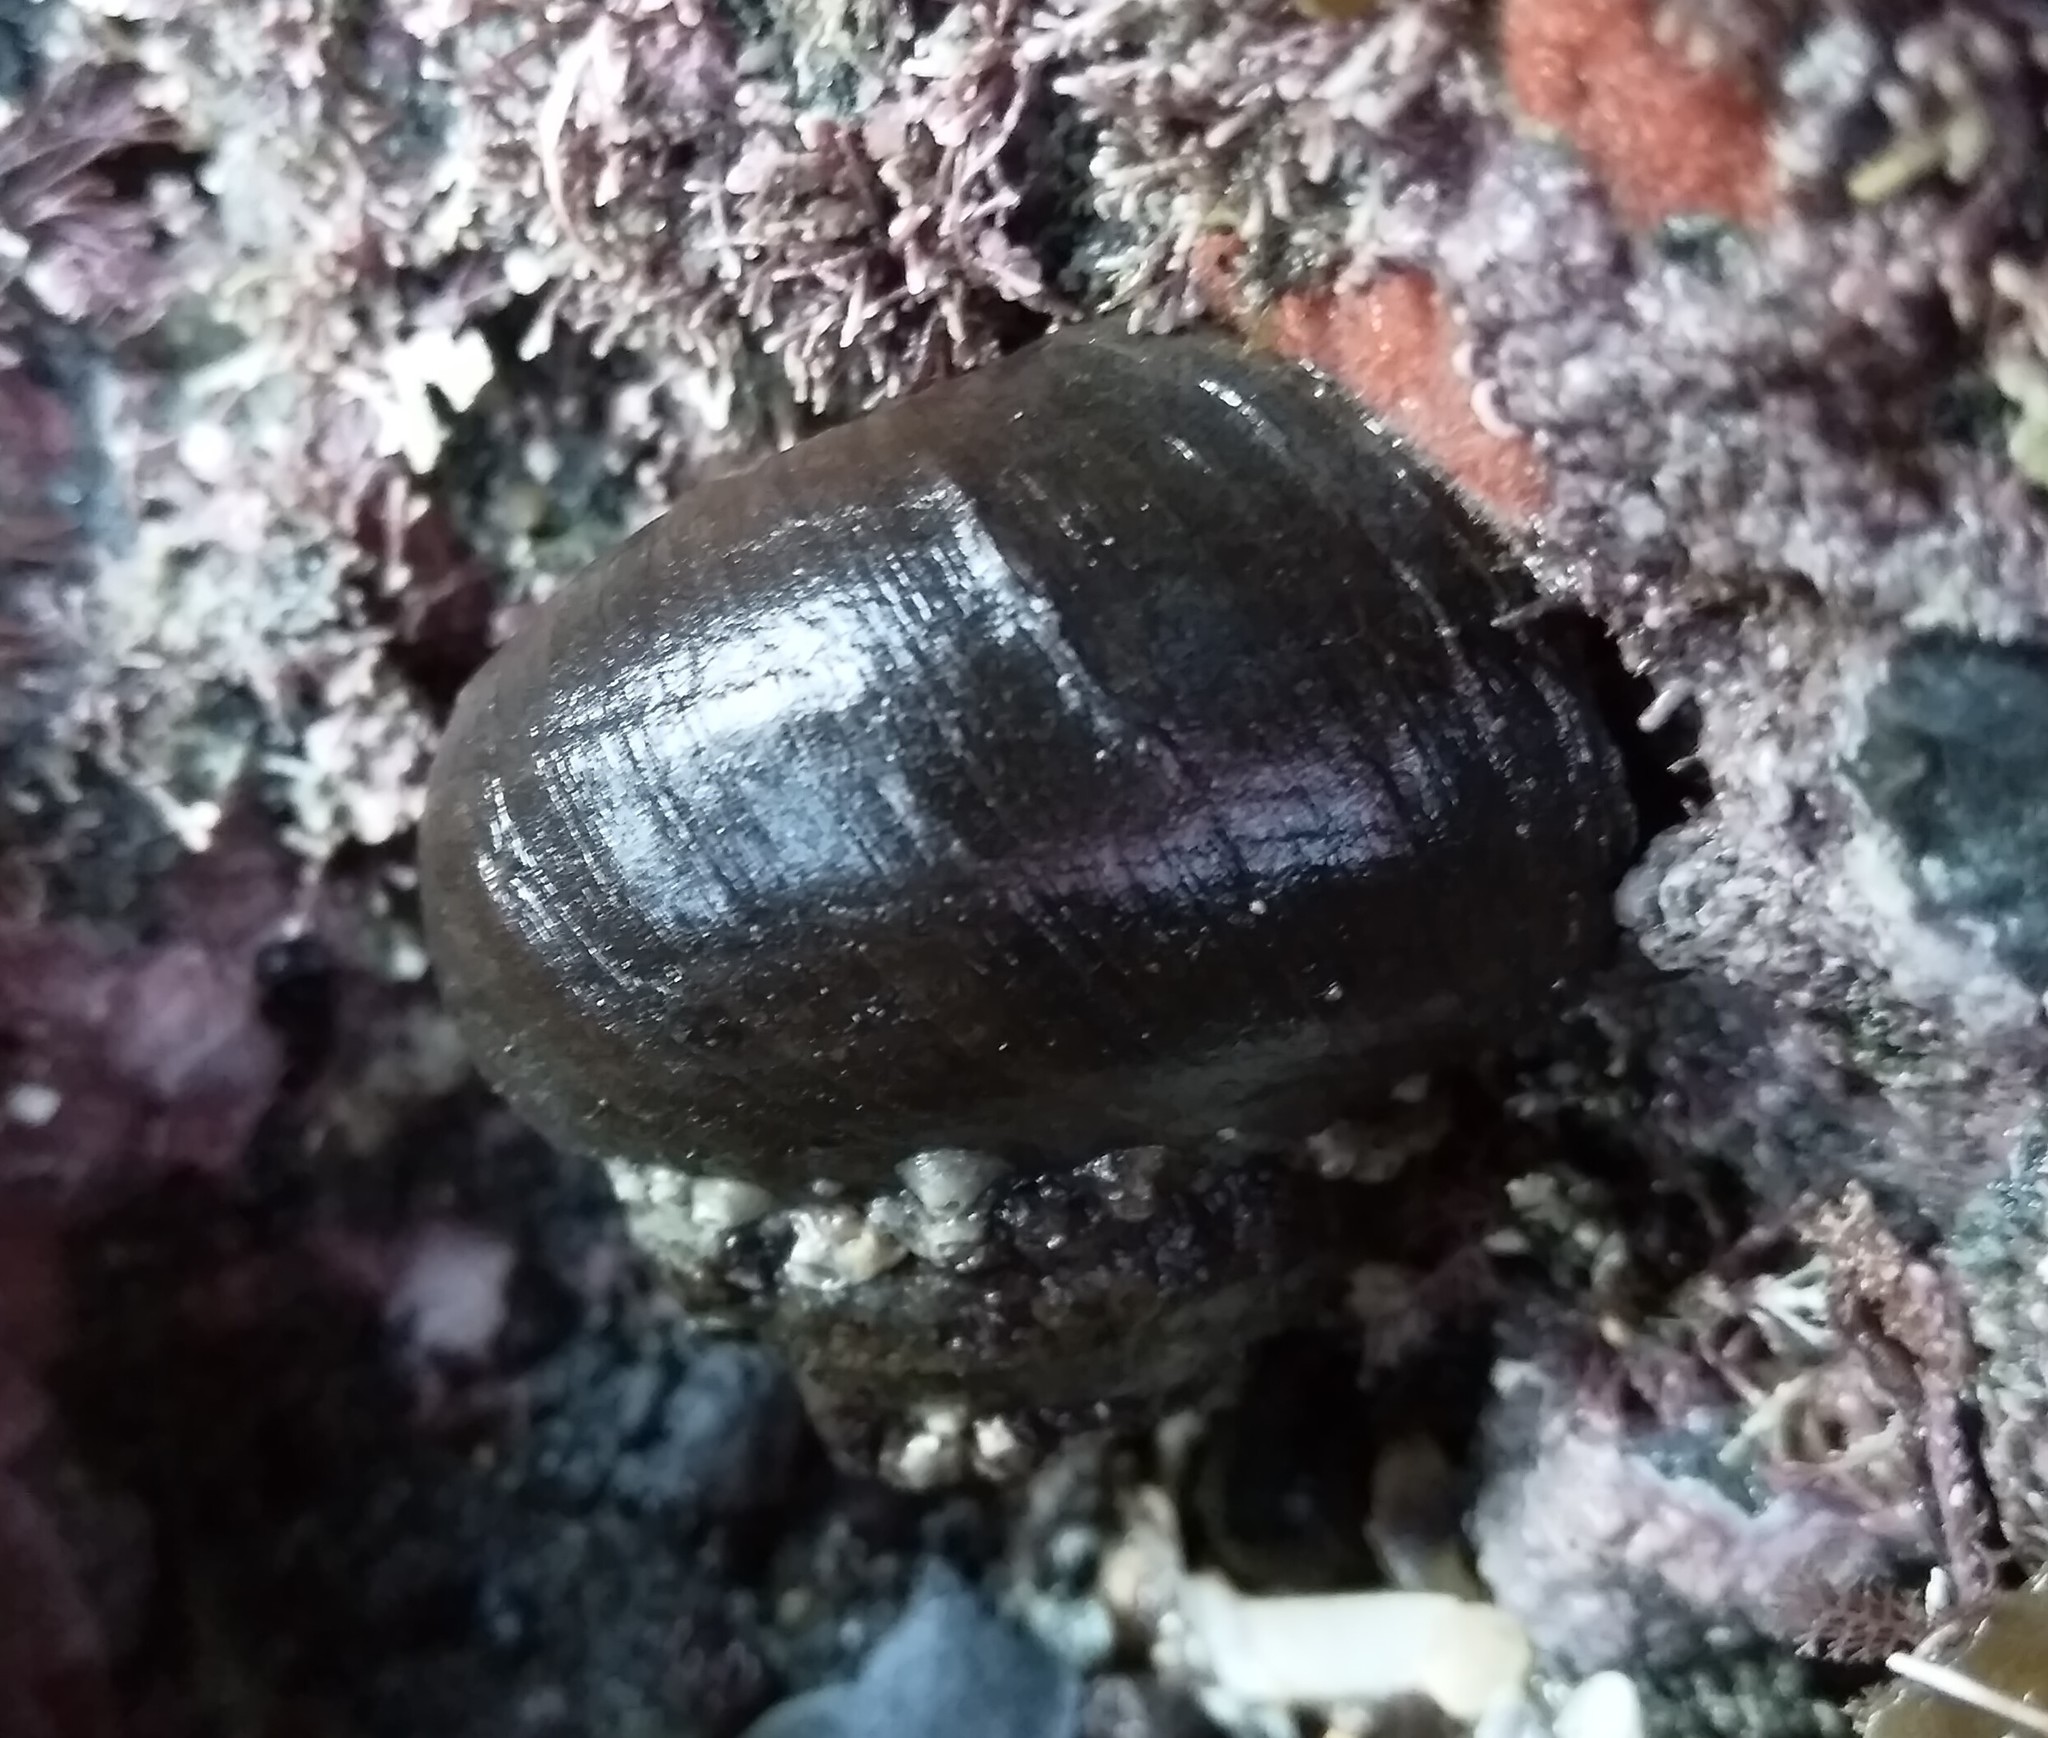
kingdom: Animalia
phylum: Mollusca
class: Gastropoda
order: Trochida
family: Turbinidae
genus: Lunella
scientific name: Lunella smaragda
